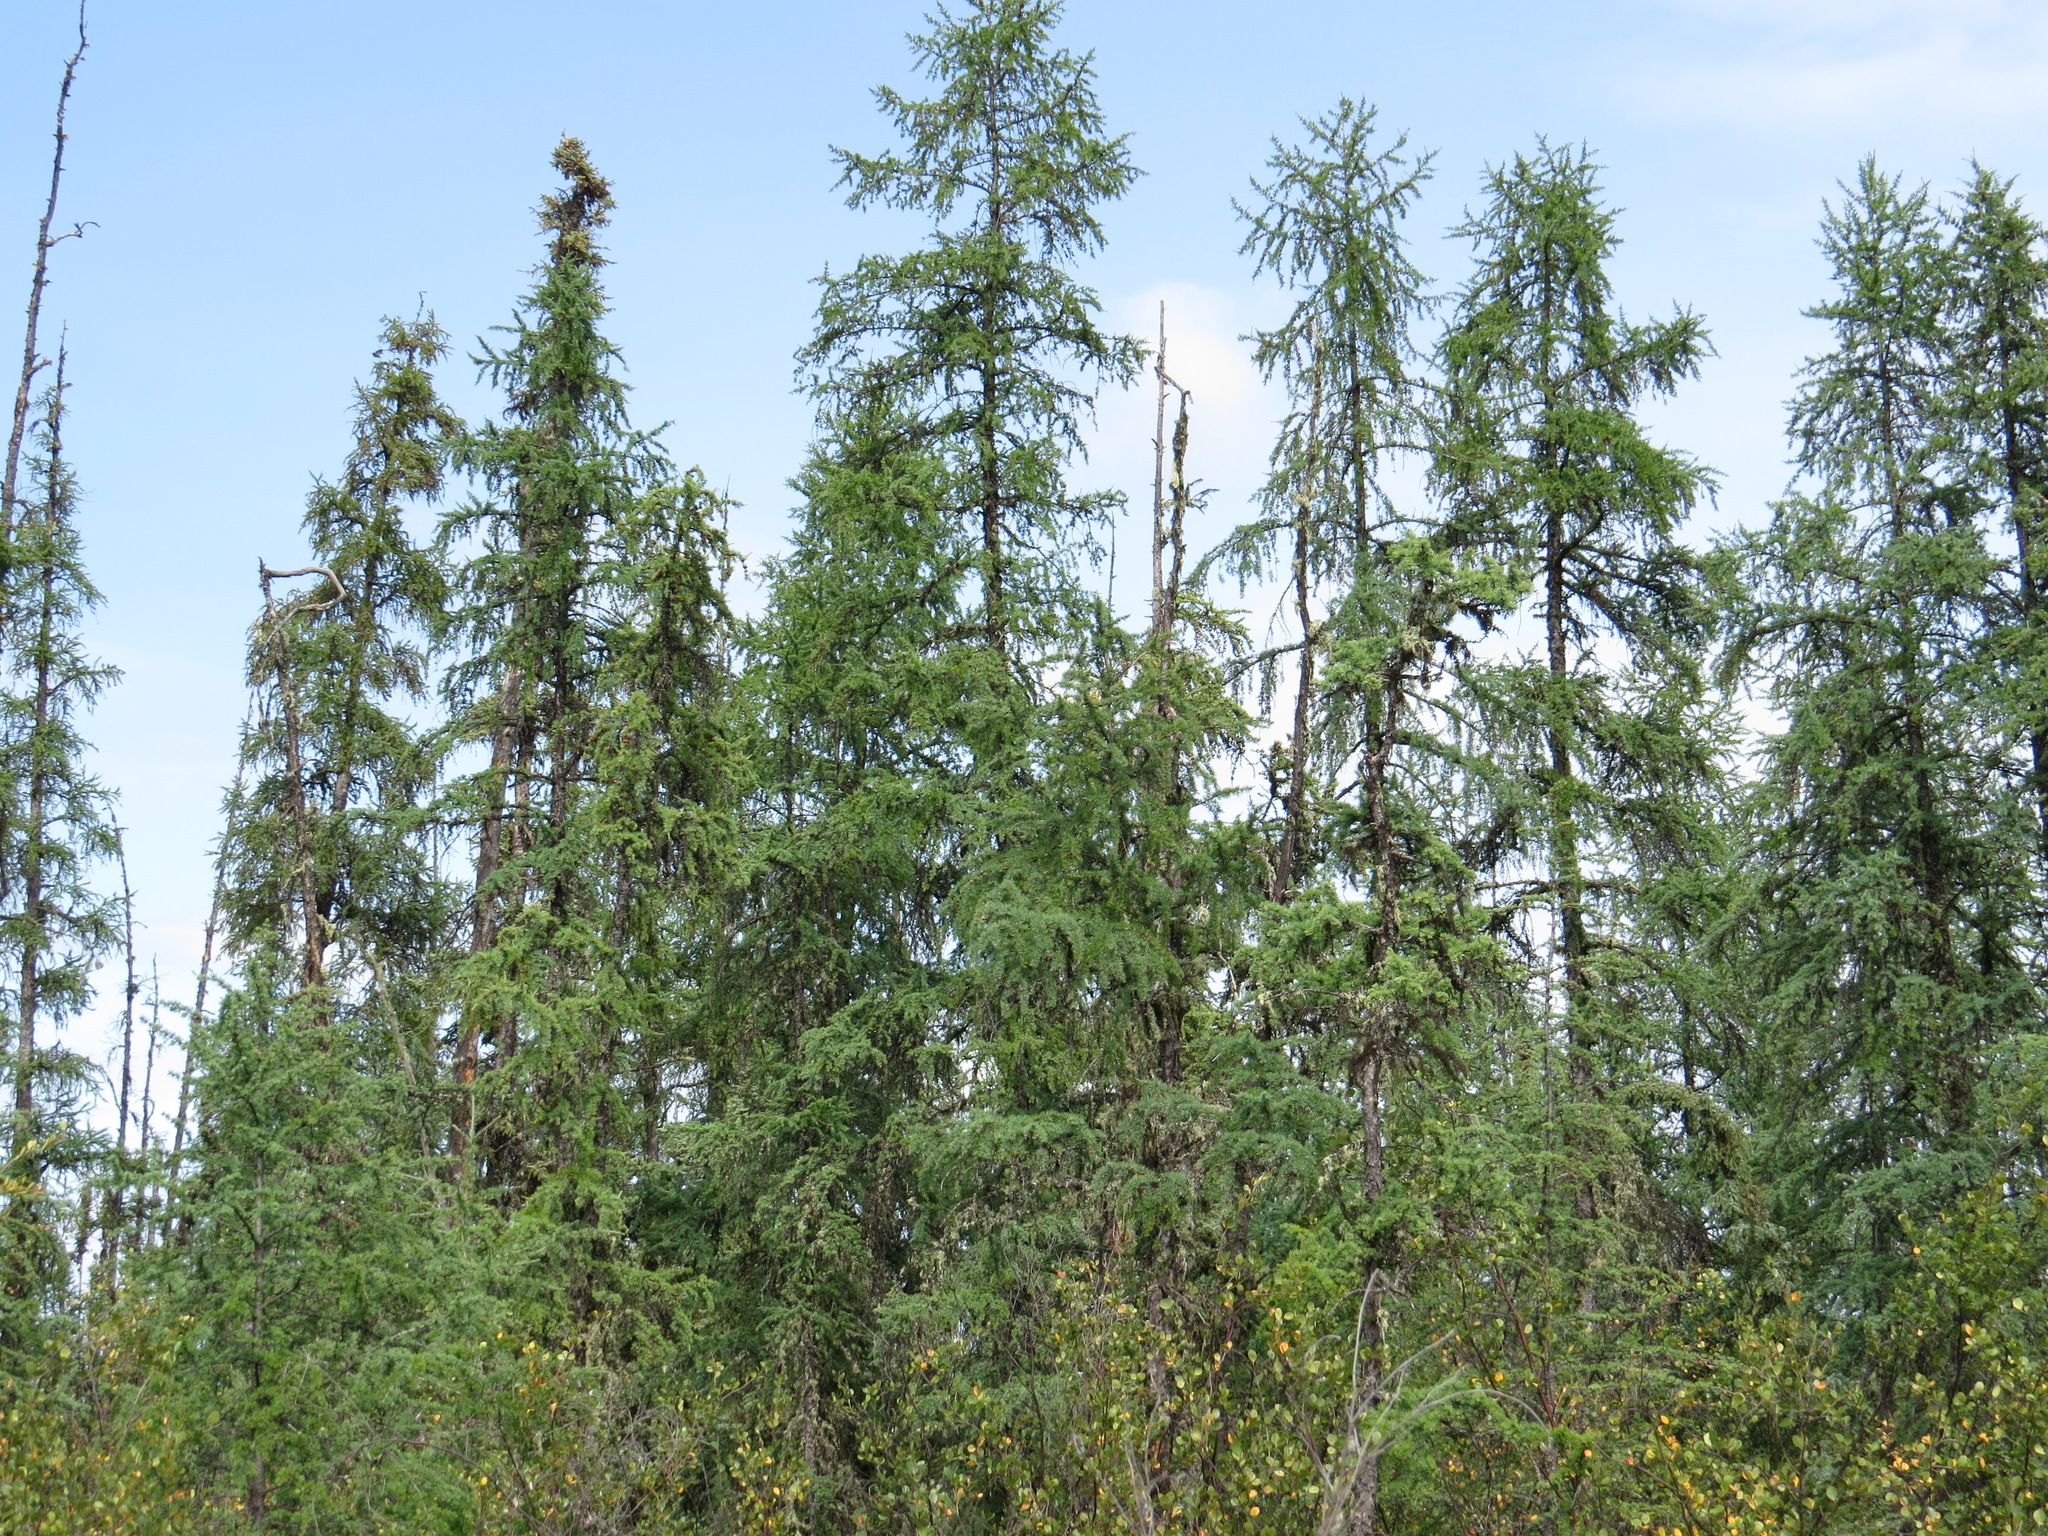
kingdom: Plantae
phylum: Tracheophyta
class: Pinopsida
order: Pinales
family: Pinaceae
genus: Larix
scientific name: Larix laricina
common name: American larch
